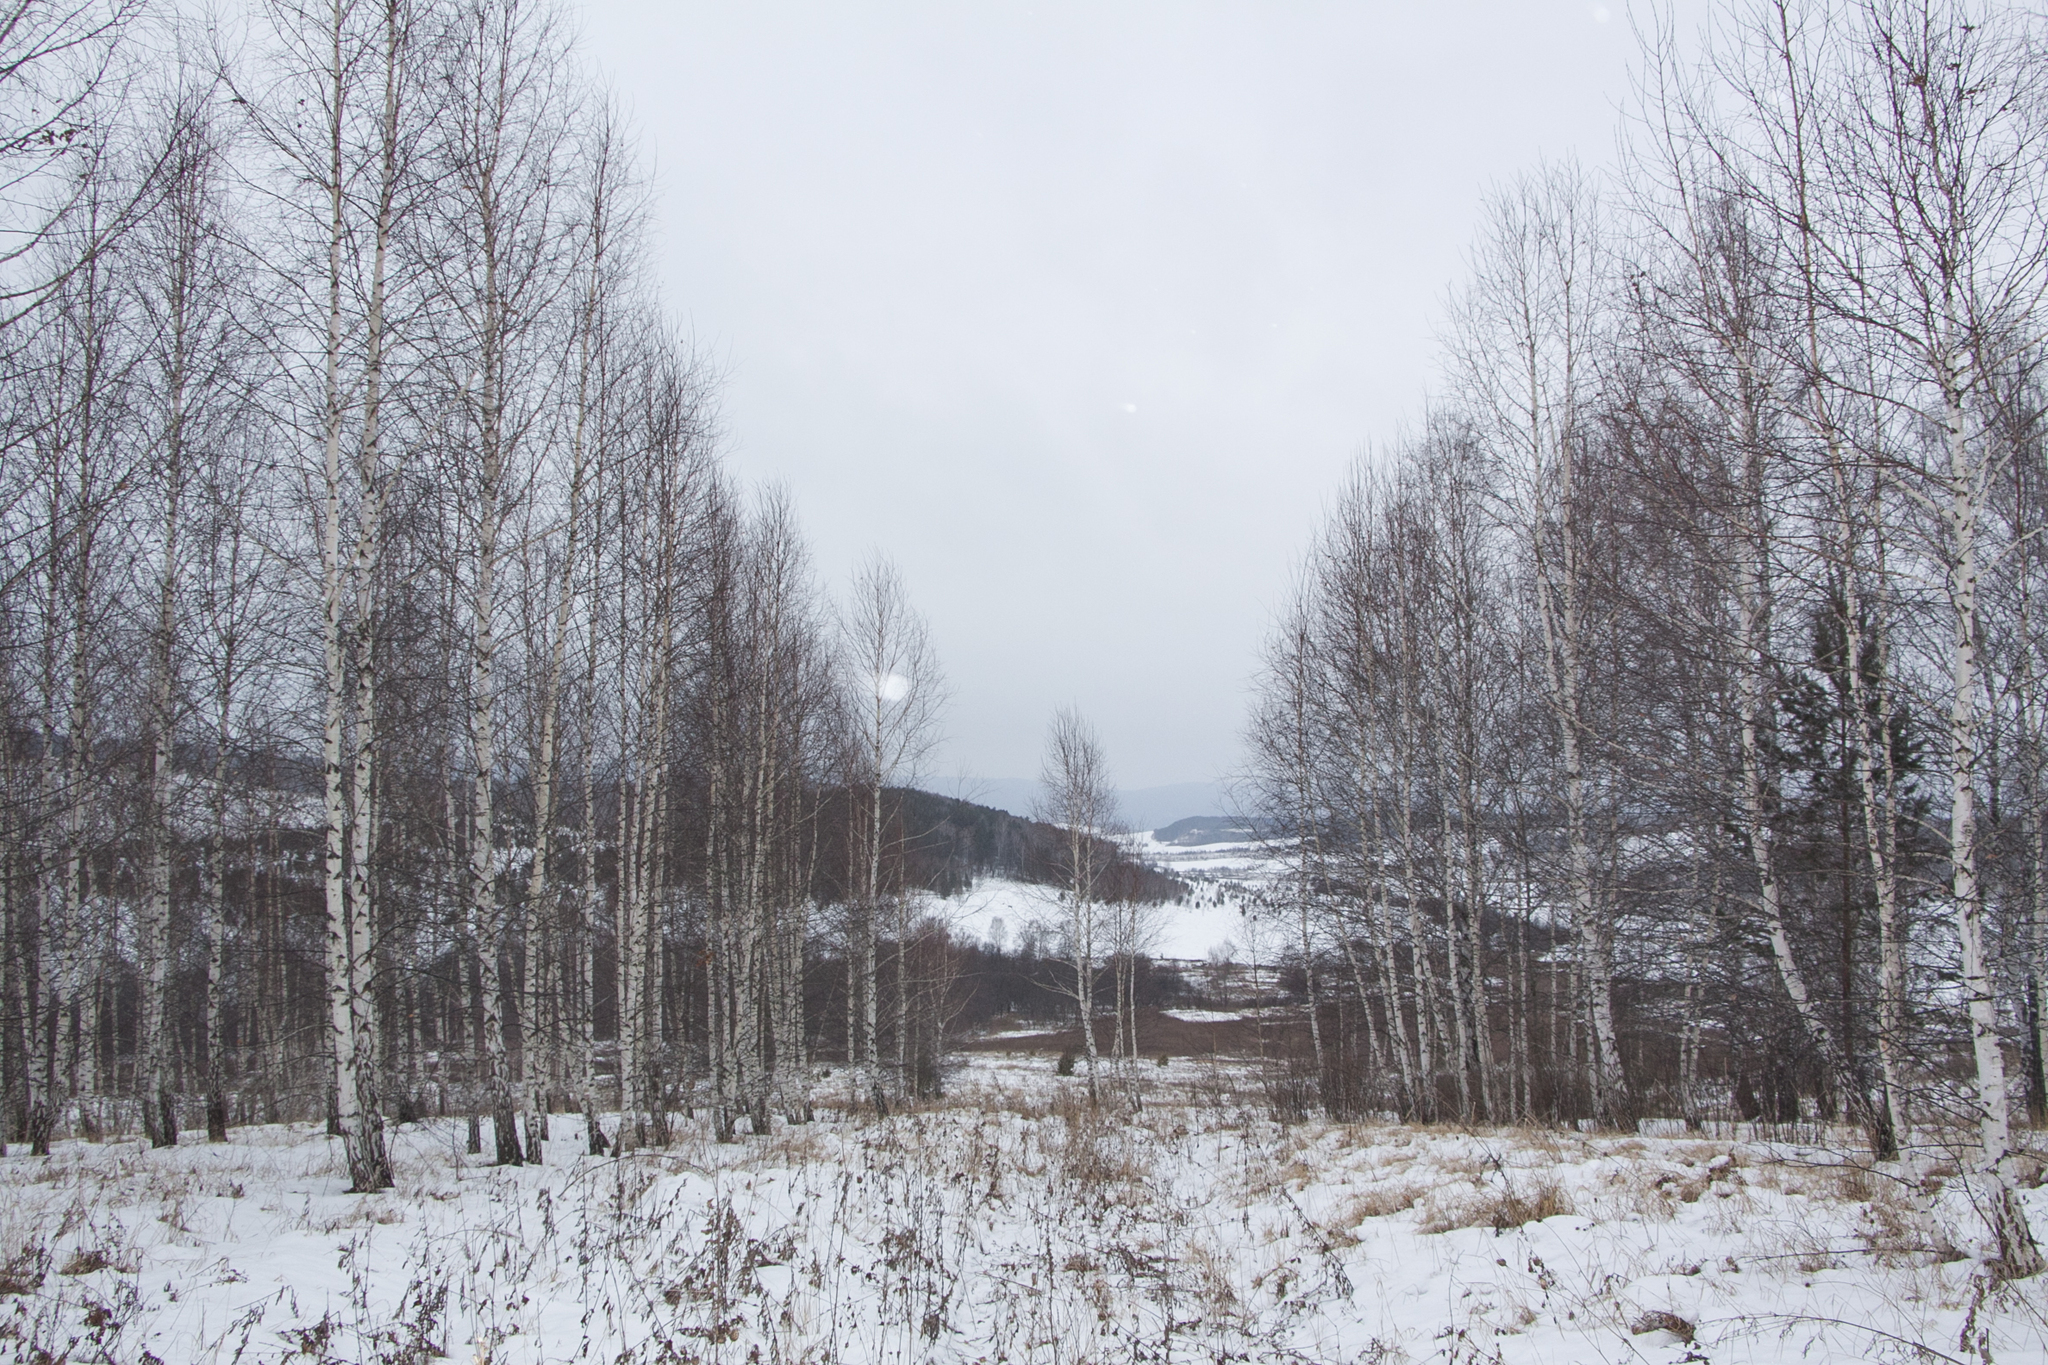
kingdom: Plantae
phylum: Tracheophyta
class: Magnoliopsida
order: Fagales
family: Betulaceae
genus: Betula
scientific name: Betula pendula
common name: Silver birch
